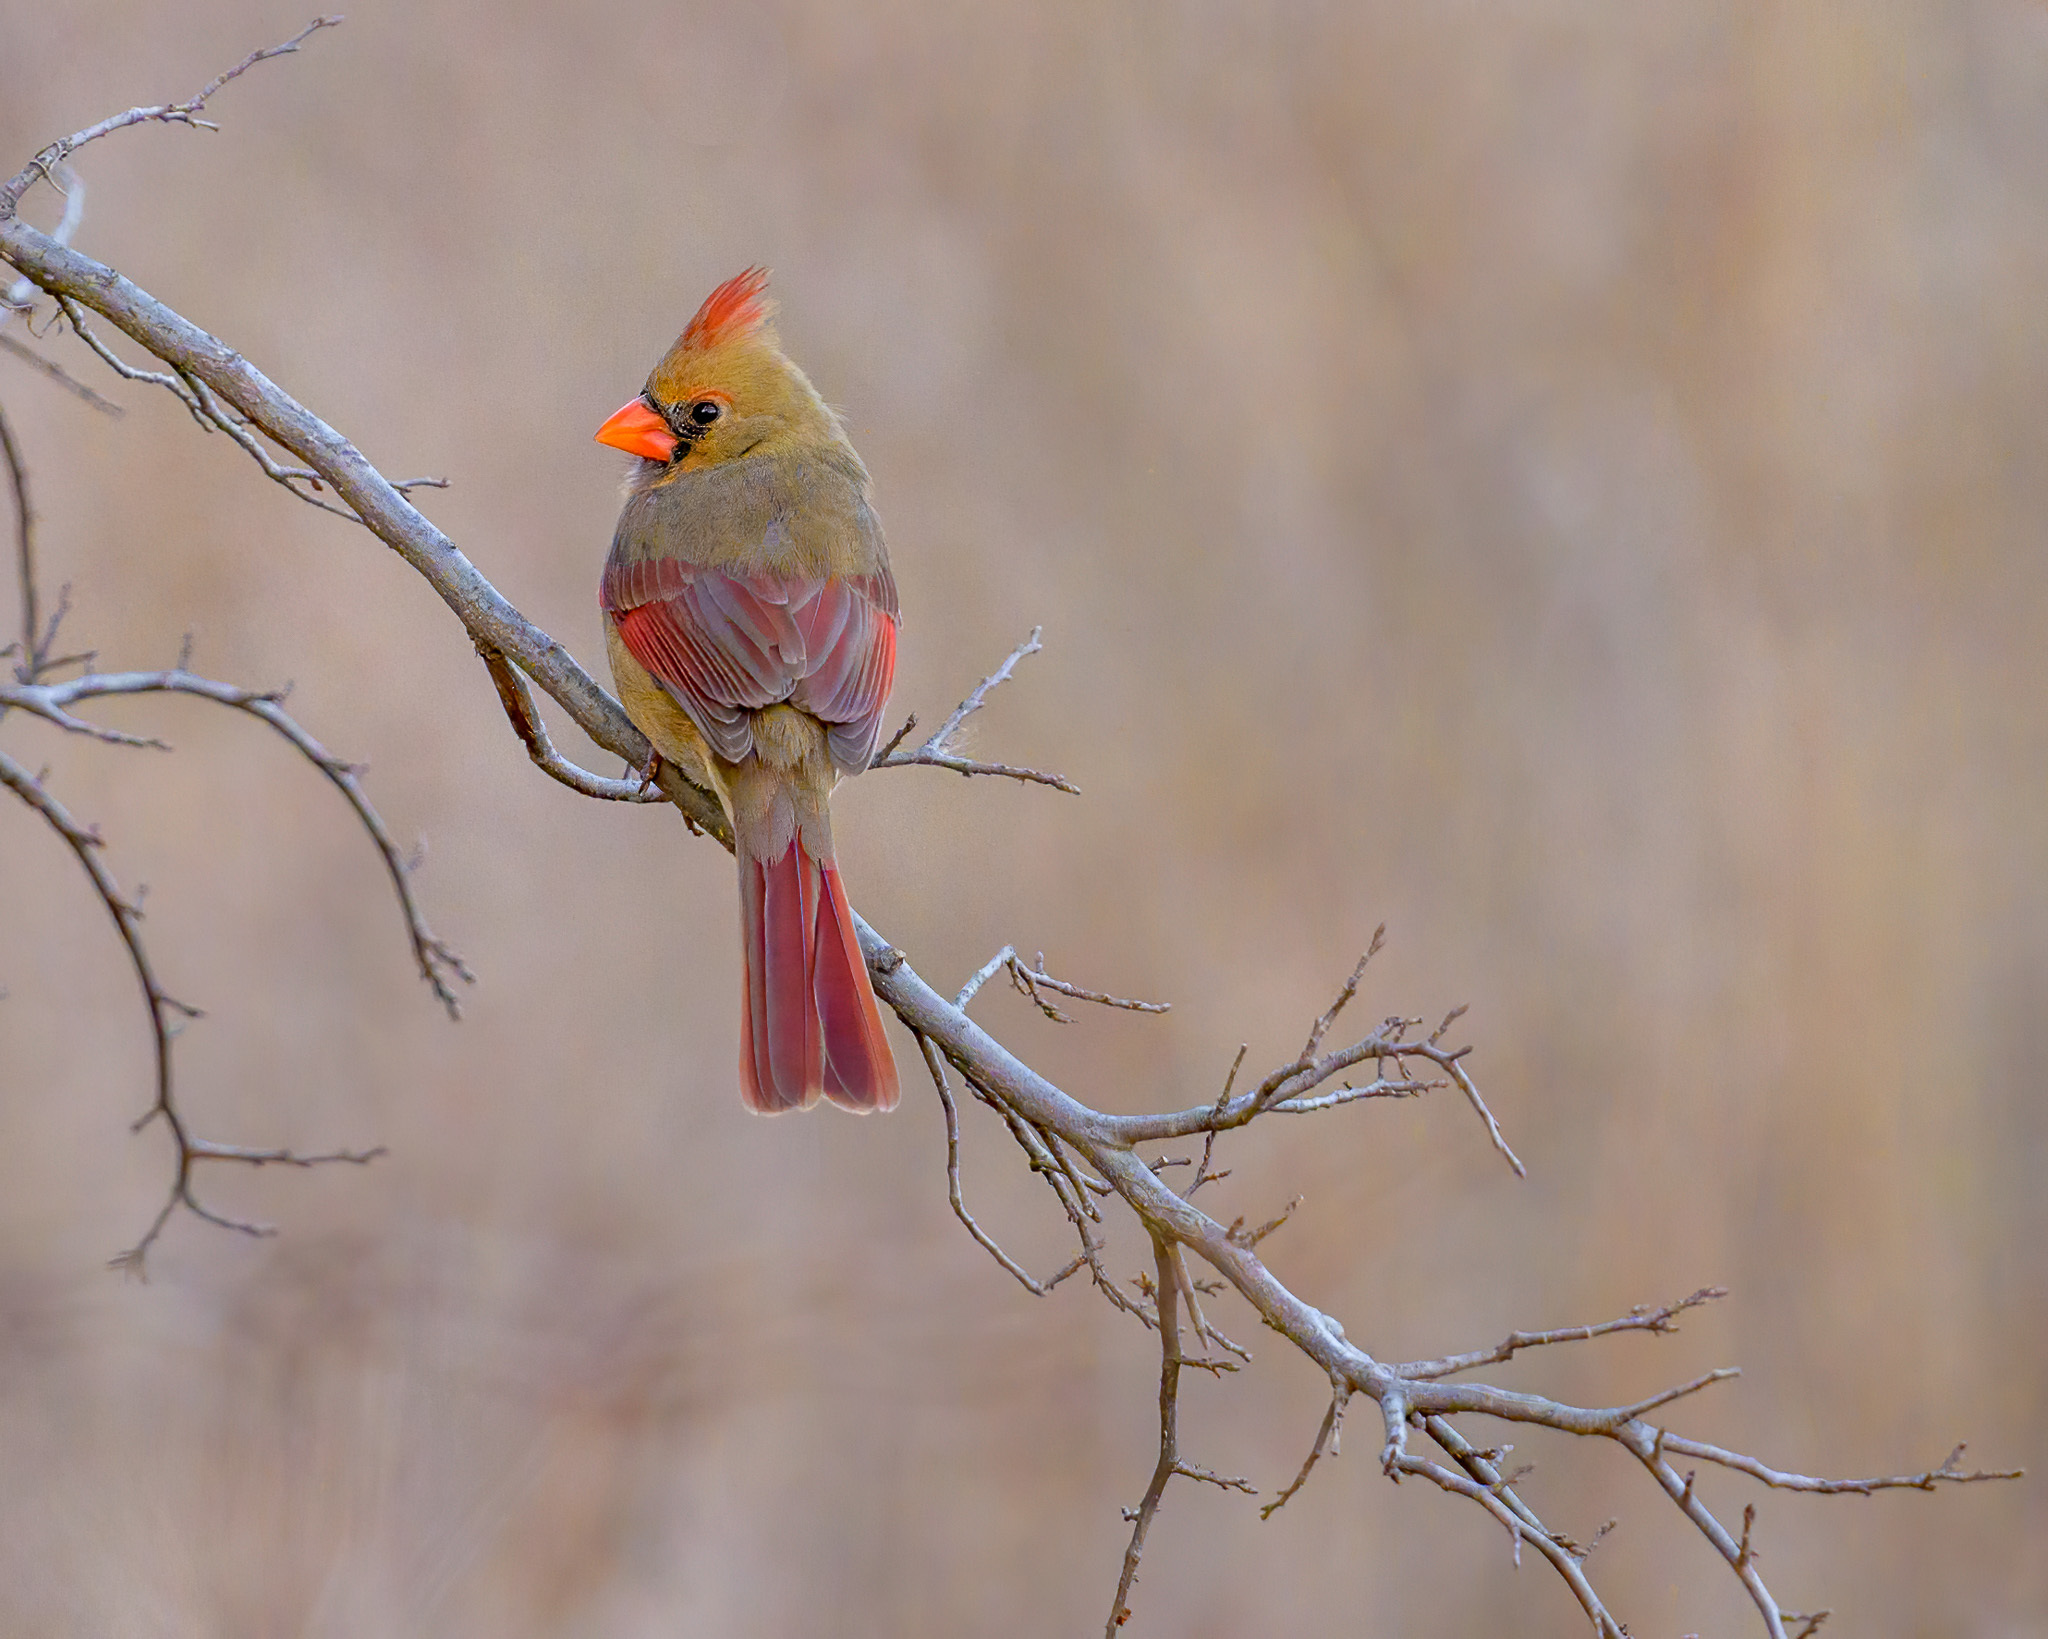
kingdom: Animalia
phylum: Chordata
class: Aves
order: Passeriformes
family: Cardinalidae
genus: Cardinalis
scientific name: Cardinalis cardinalis
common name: Northern cardinal
